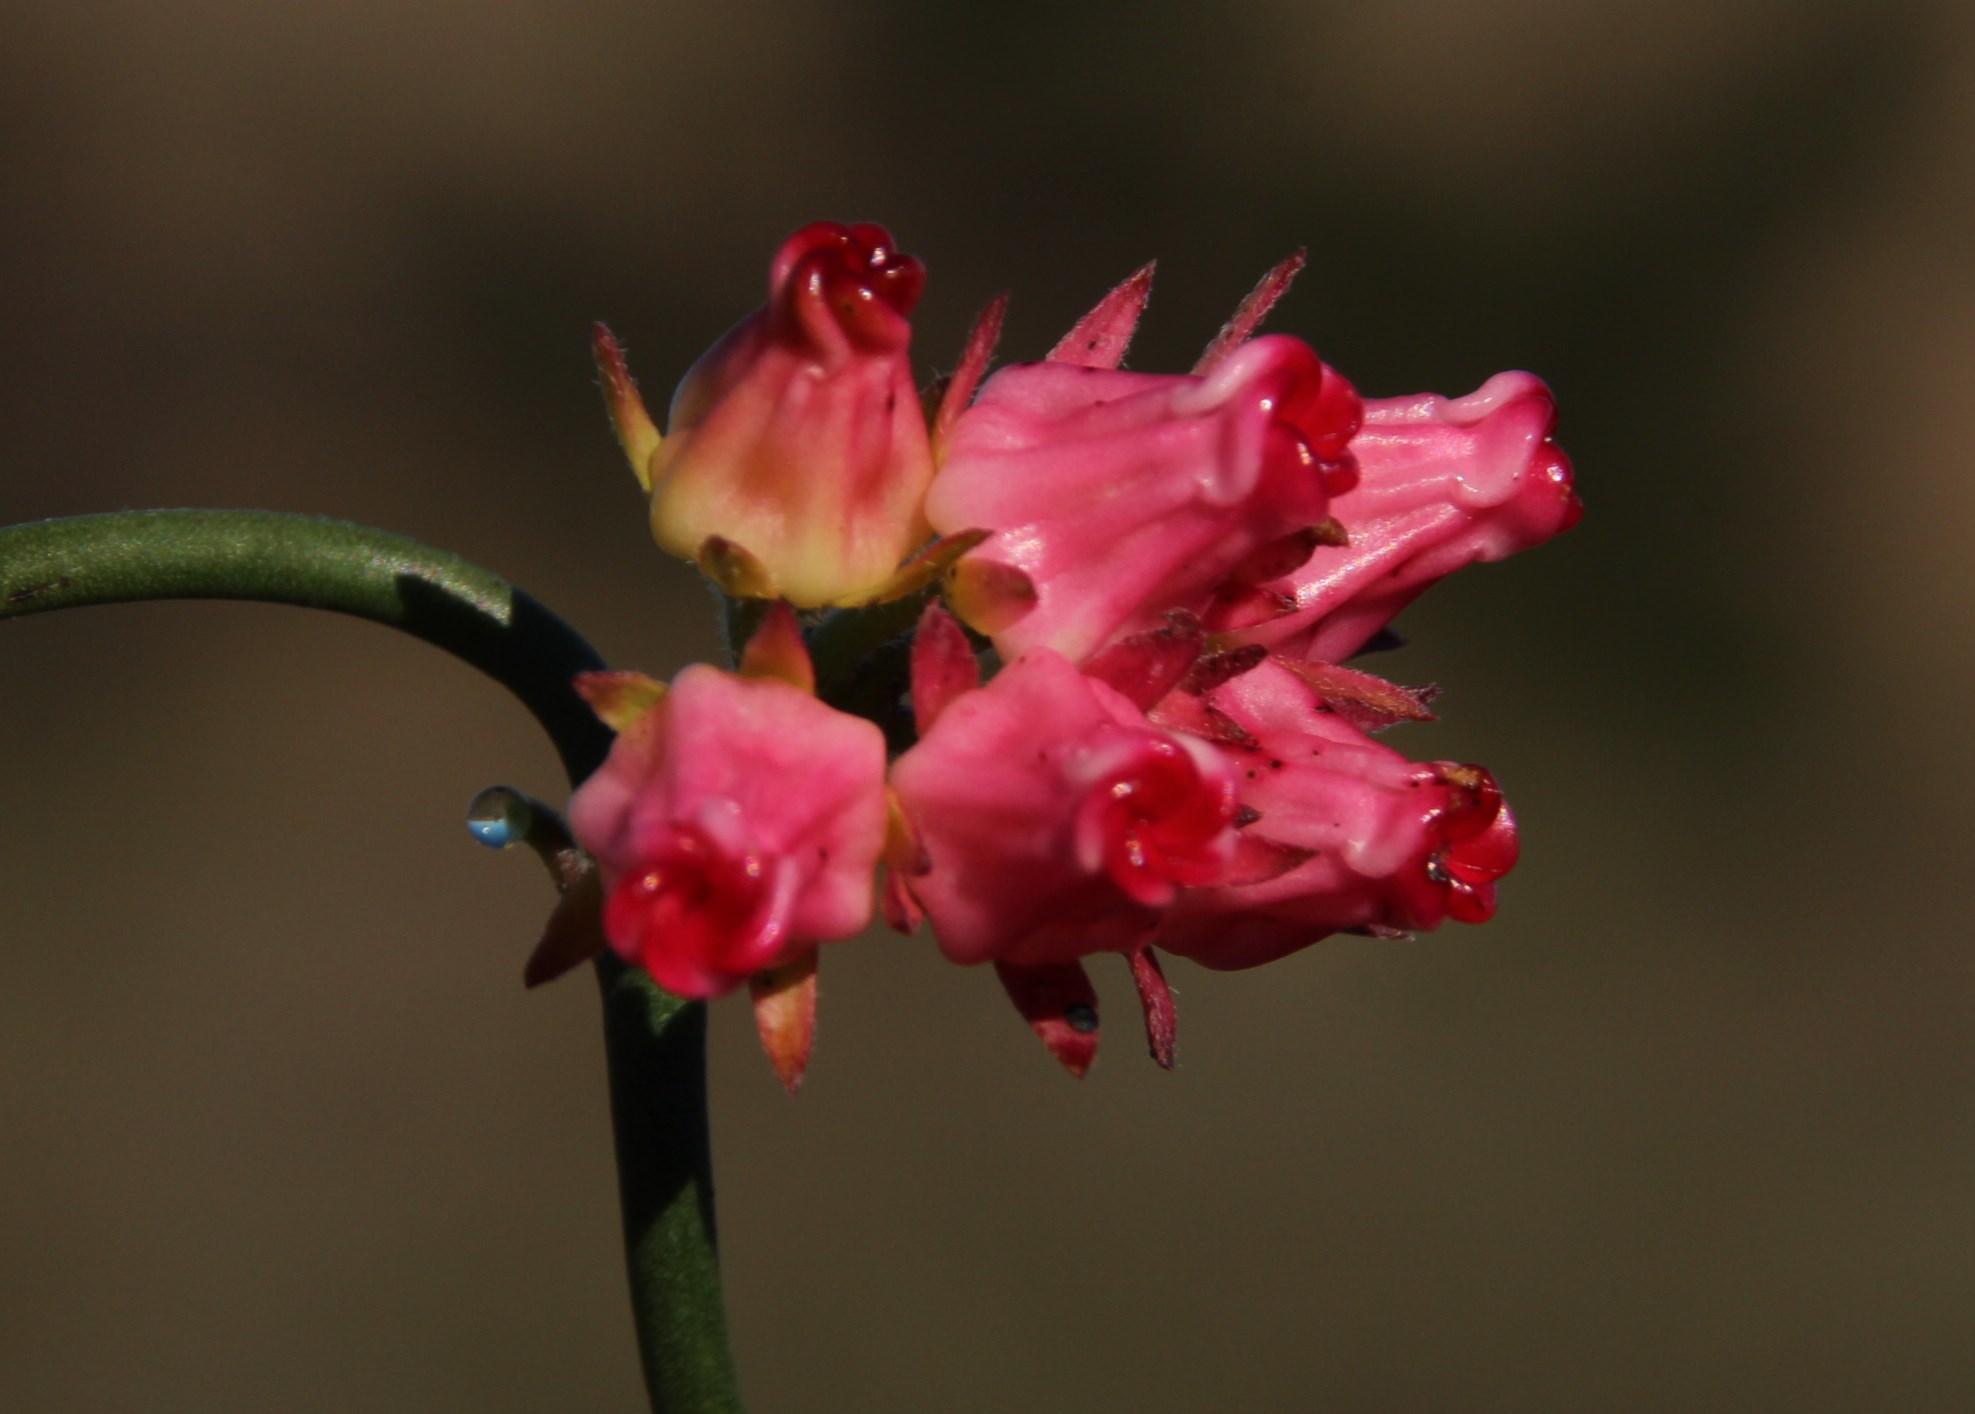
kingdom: Plantae
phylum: Tracheophyta
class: Magnoliopsida
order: Gentianales
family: Apocynaceae
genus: Microloma
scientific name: Microloma tenuifolium
